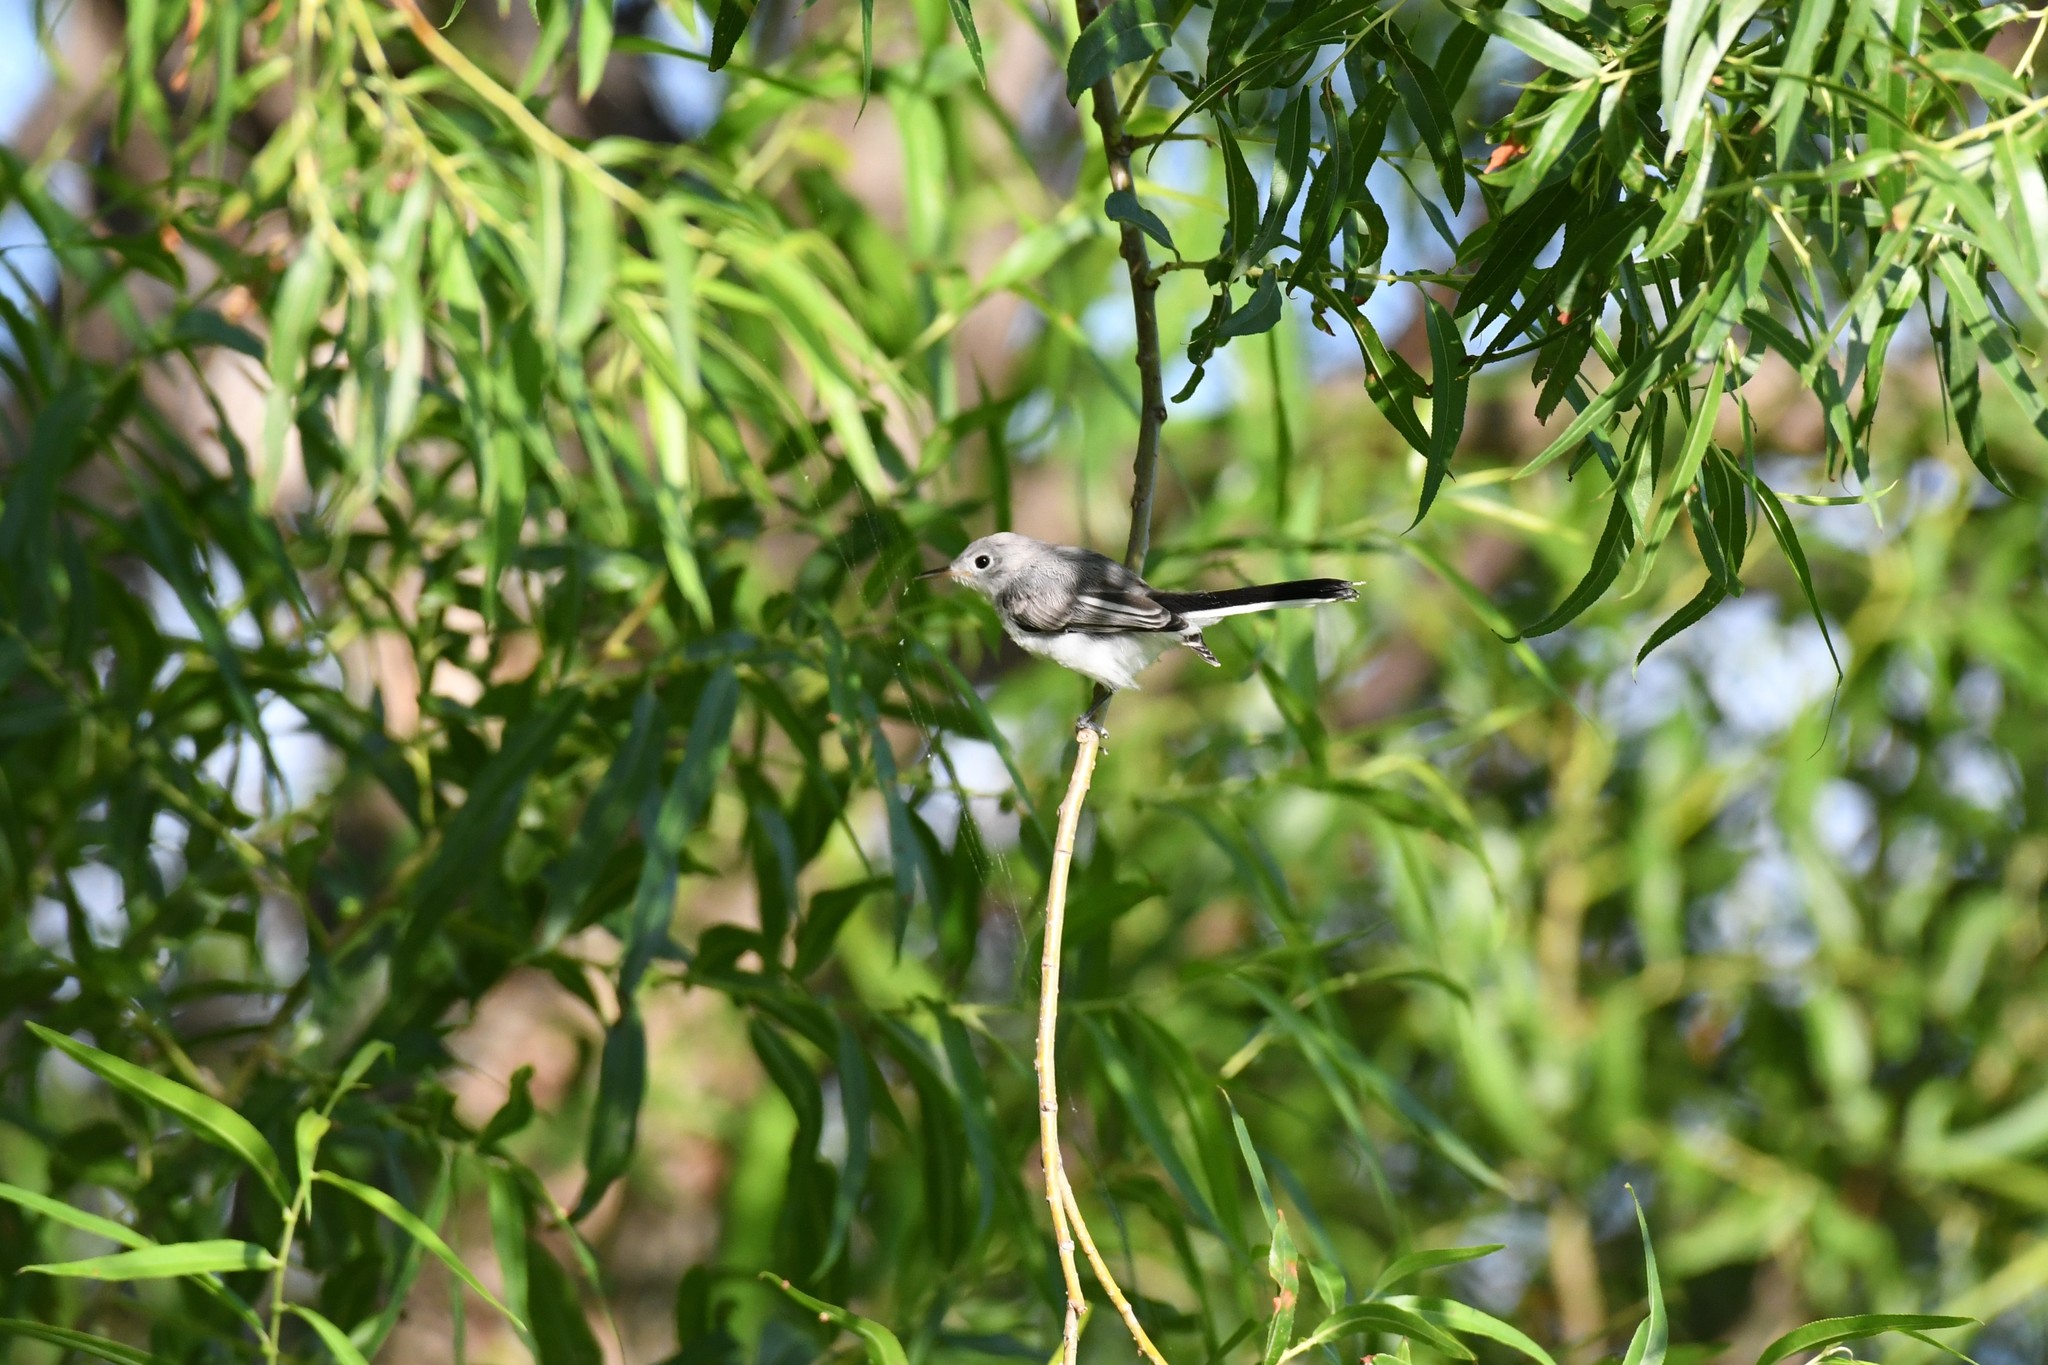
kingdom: Animalia
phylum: Chordata
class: Aves
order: Passeriformes
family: Polioptilidae
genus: Polioptila
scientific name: Polioptila caerulea
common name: Blue-gray gnatcatcher
